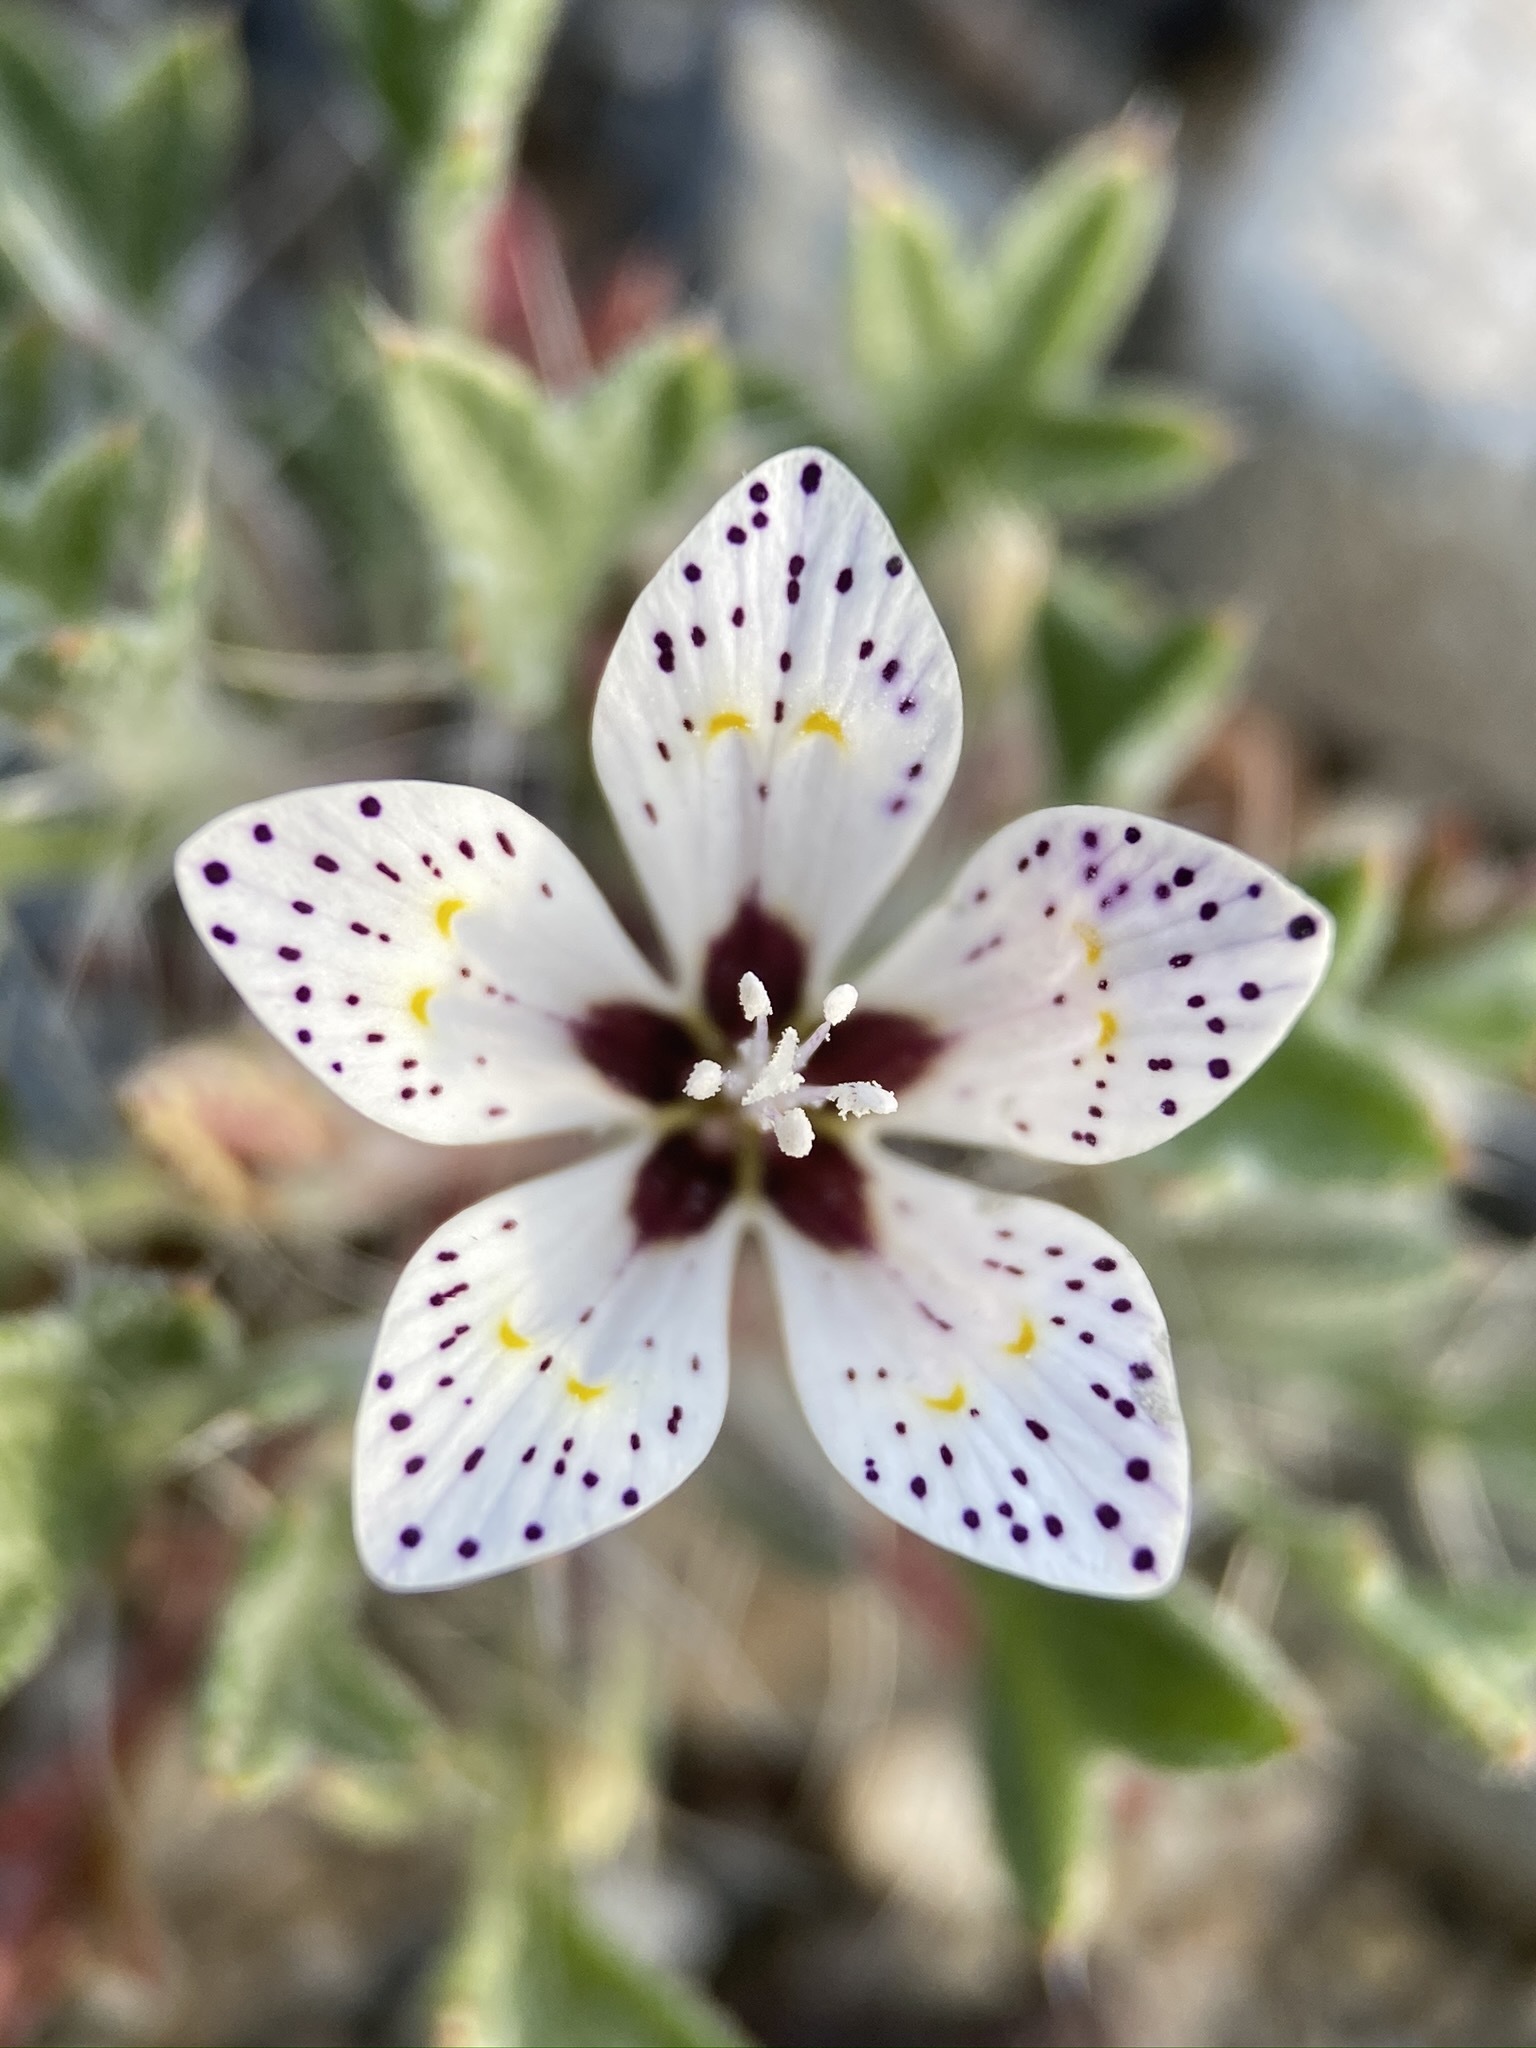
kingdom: Plantae
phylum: Tracheophyta
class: Magnoliopsida
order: Ericales
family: Polemoniaceae
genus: Langloisia
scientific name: Langloisia setosissima
